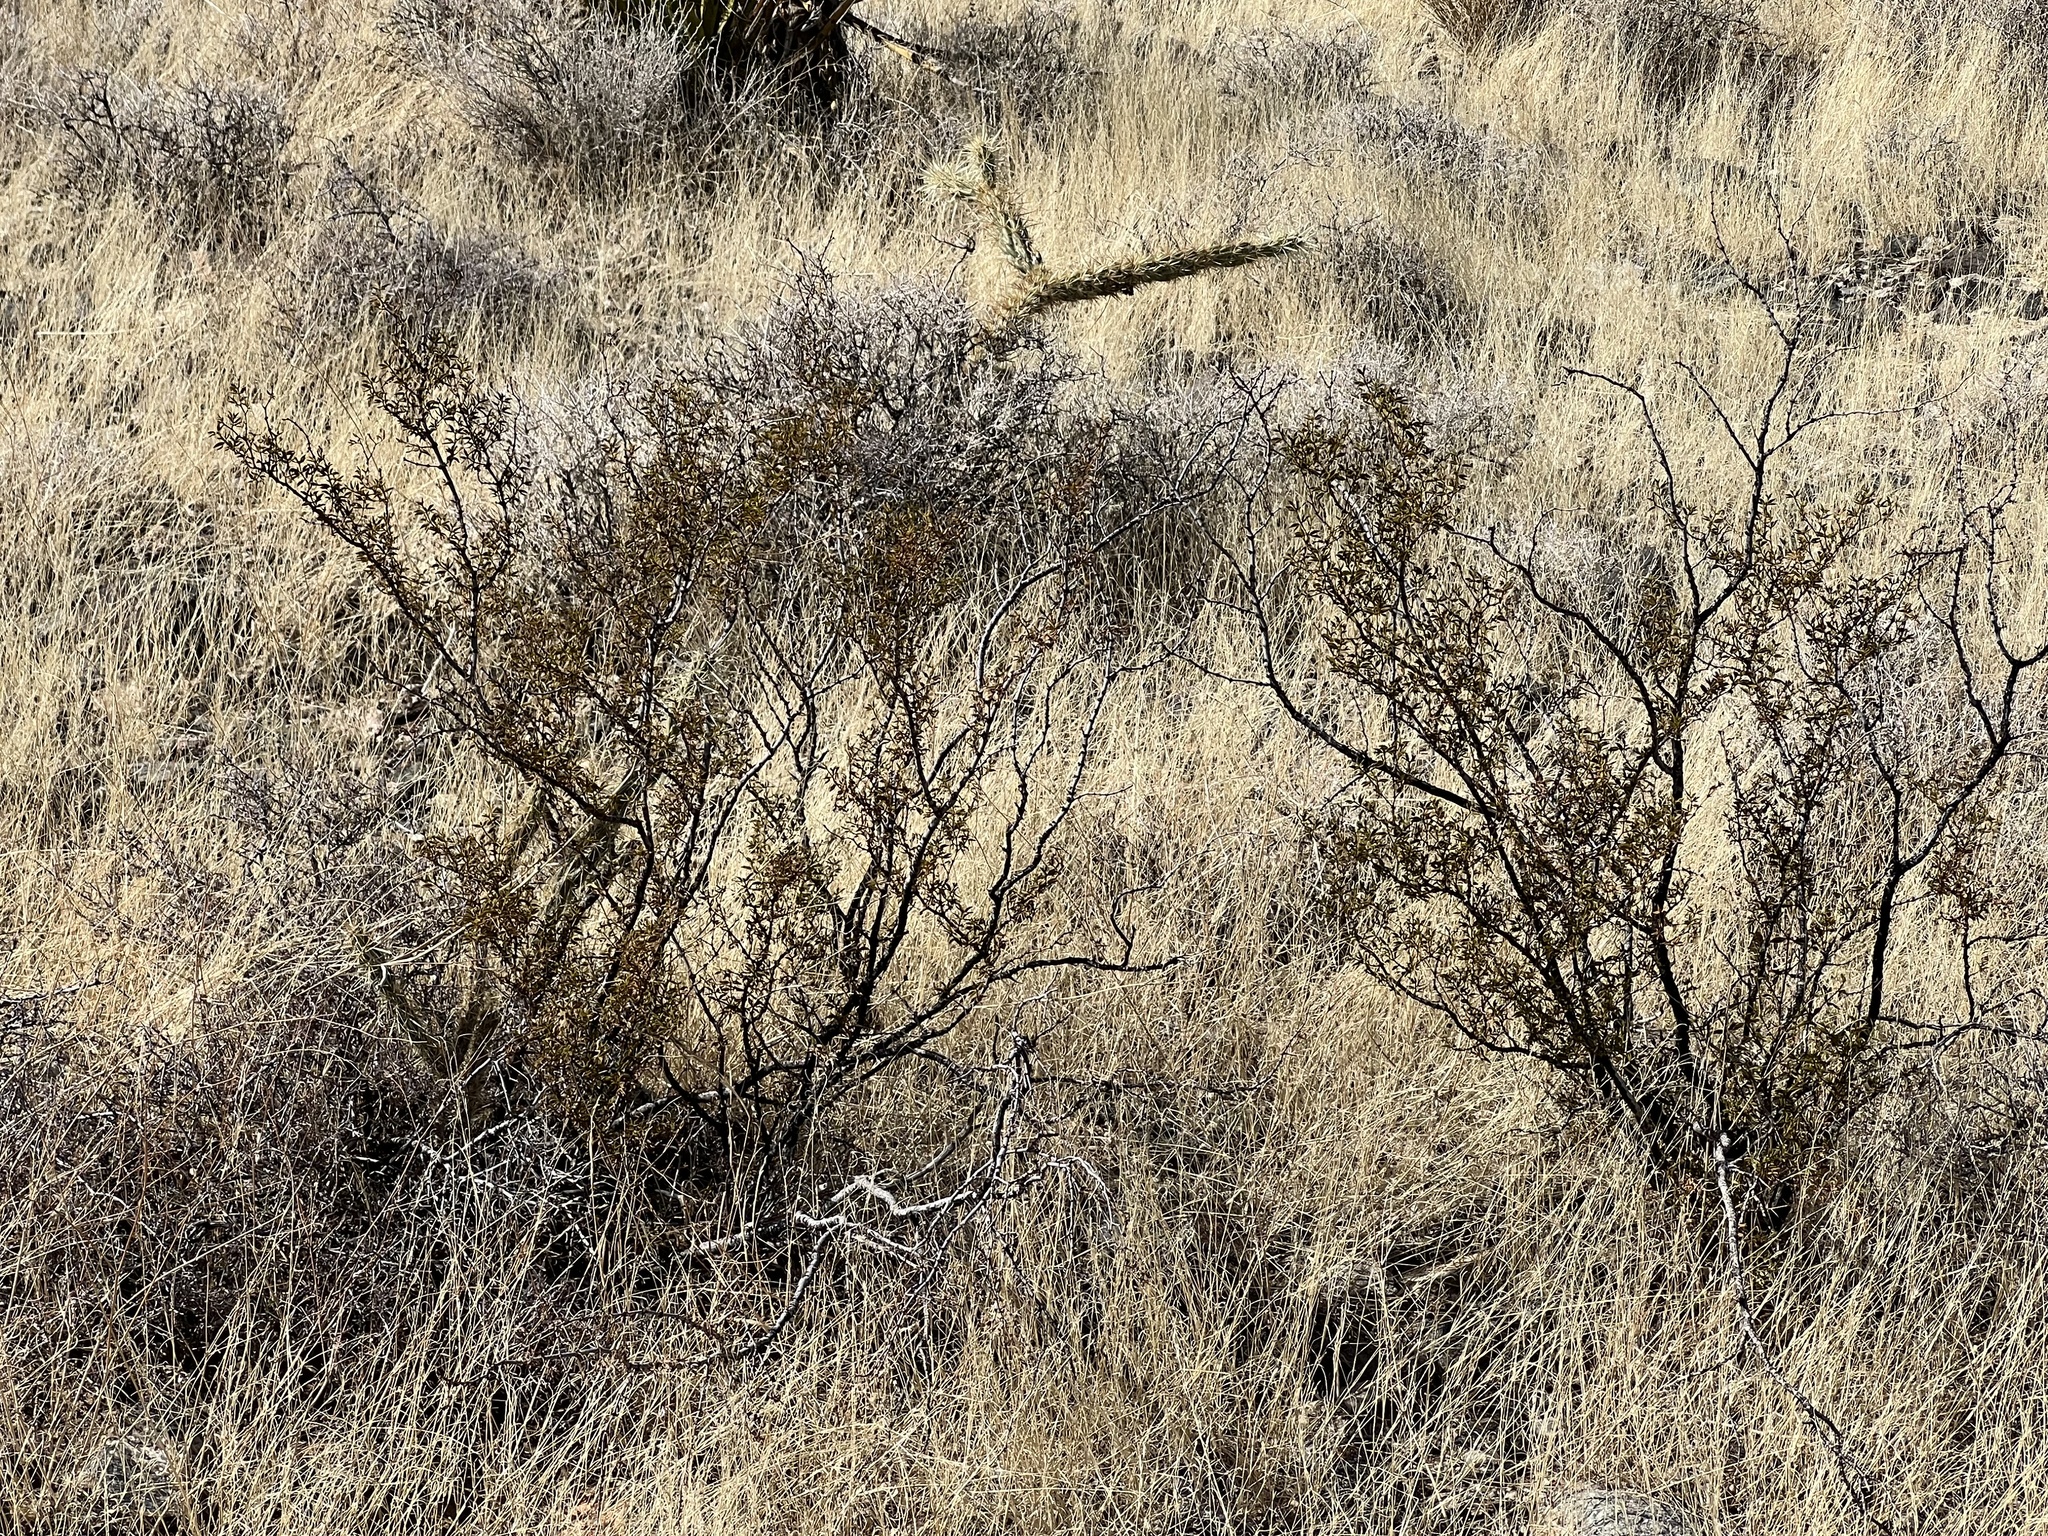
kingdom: Plantae
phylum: Tracheophyta
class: Magnoliopsida
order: Zygophyllales
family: Zygophyllaceae
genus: Larrea
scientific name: Larrea tridentata
